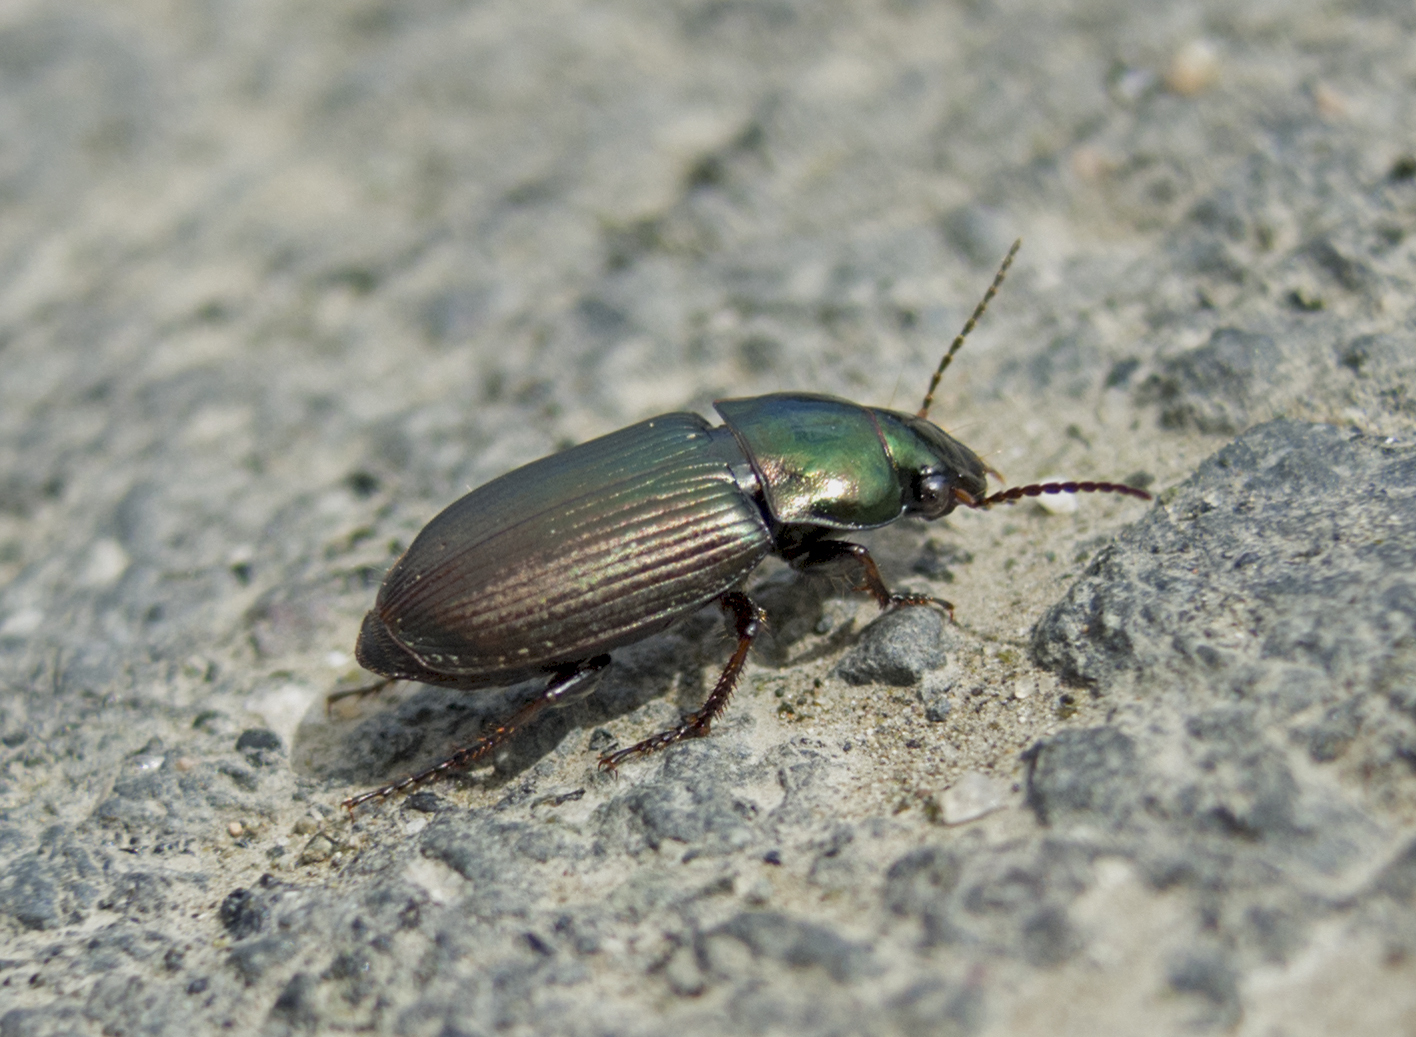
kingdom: Animalia
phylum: Arthropoda
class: Insecta
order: Coleoptera
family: Carabidae
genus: Harpalus
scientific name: Harpalus distinguendus
